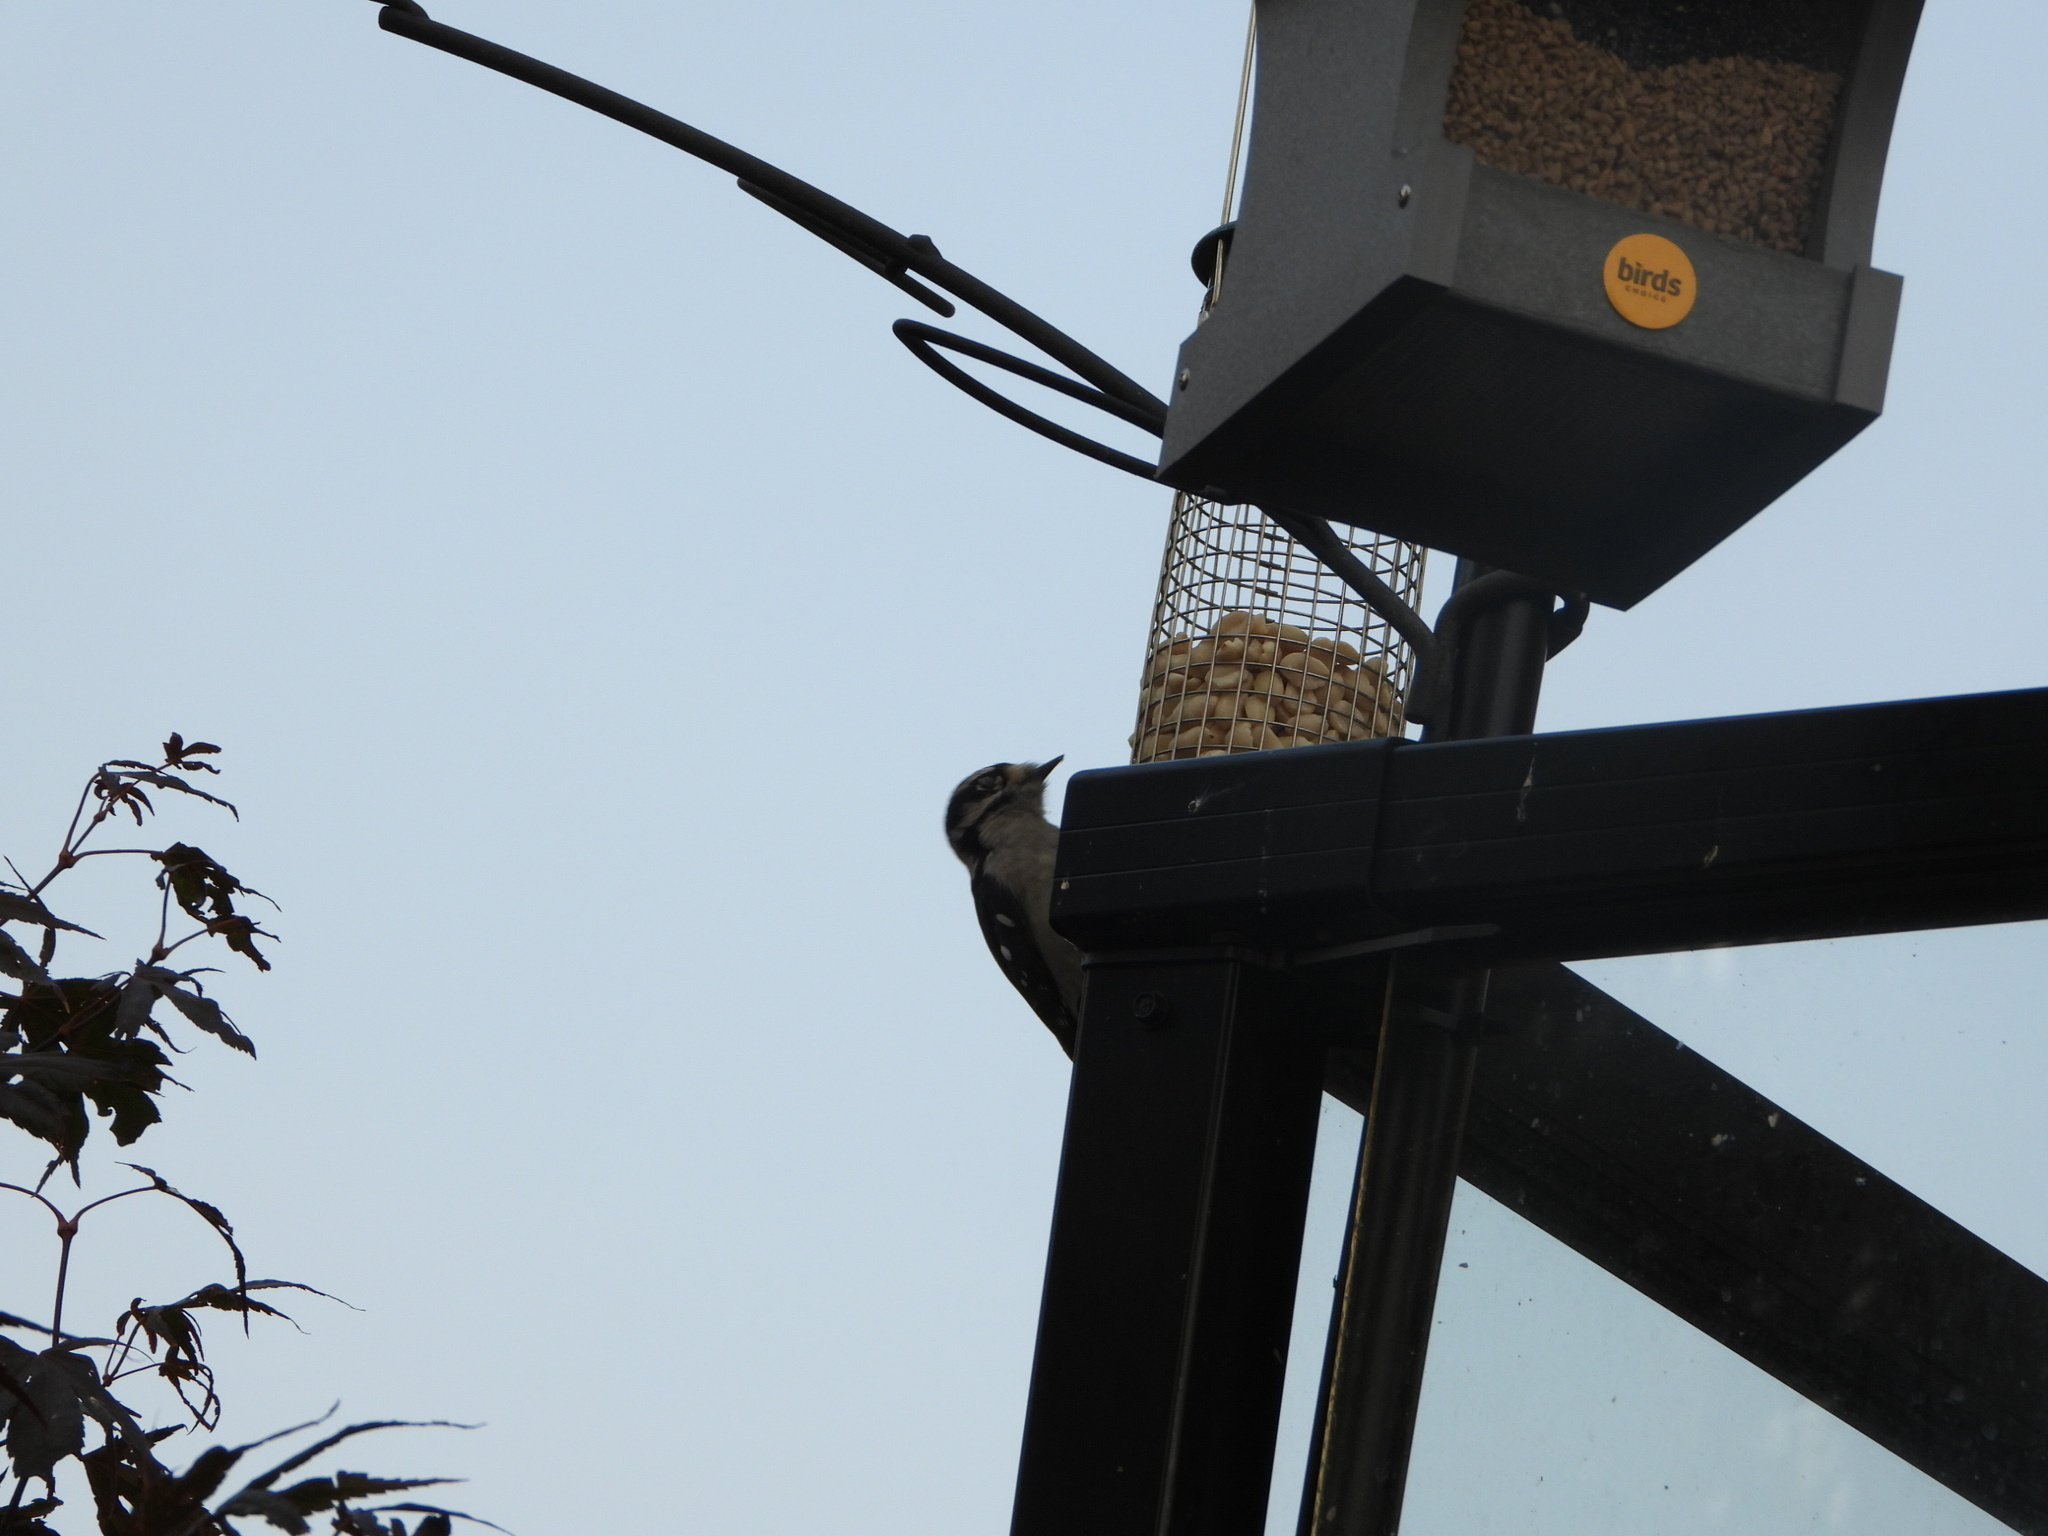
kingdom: Animalia
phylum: Chordata
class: Aves
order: Piciformes
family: Picidae
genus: Dryobates
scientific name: Dryobates pubescens
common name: Downy woodpecker
